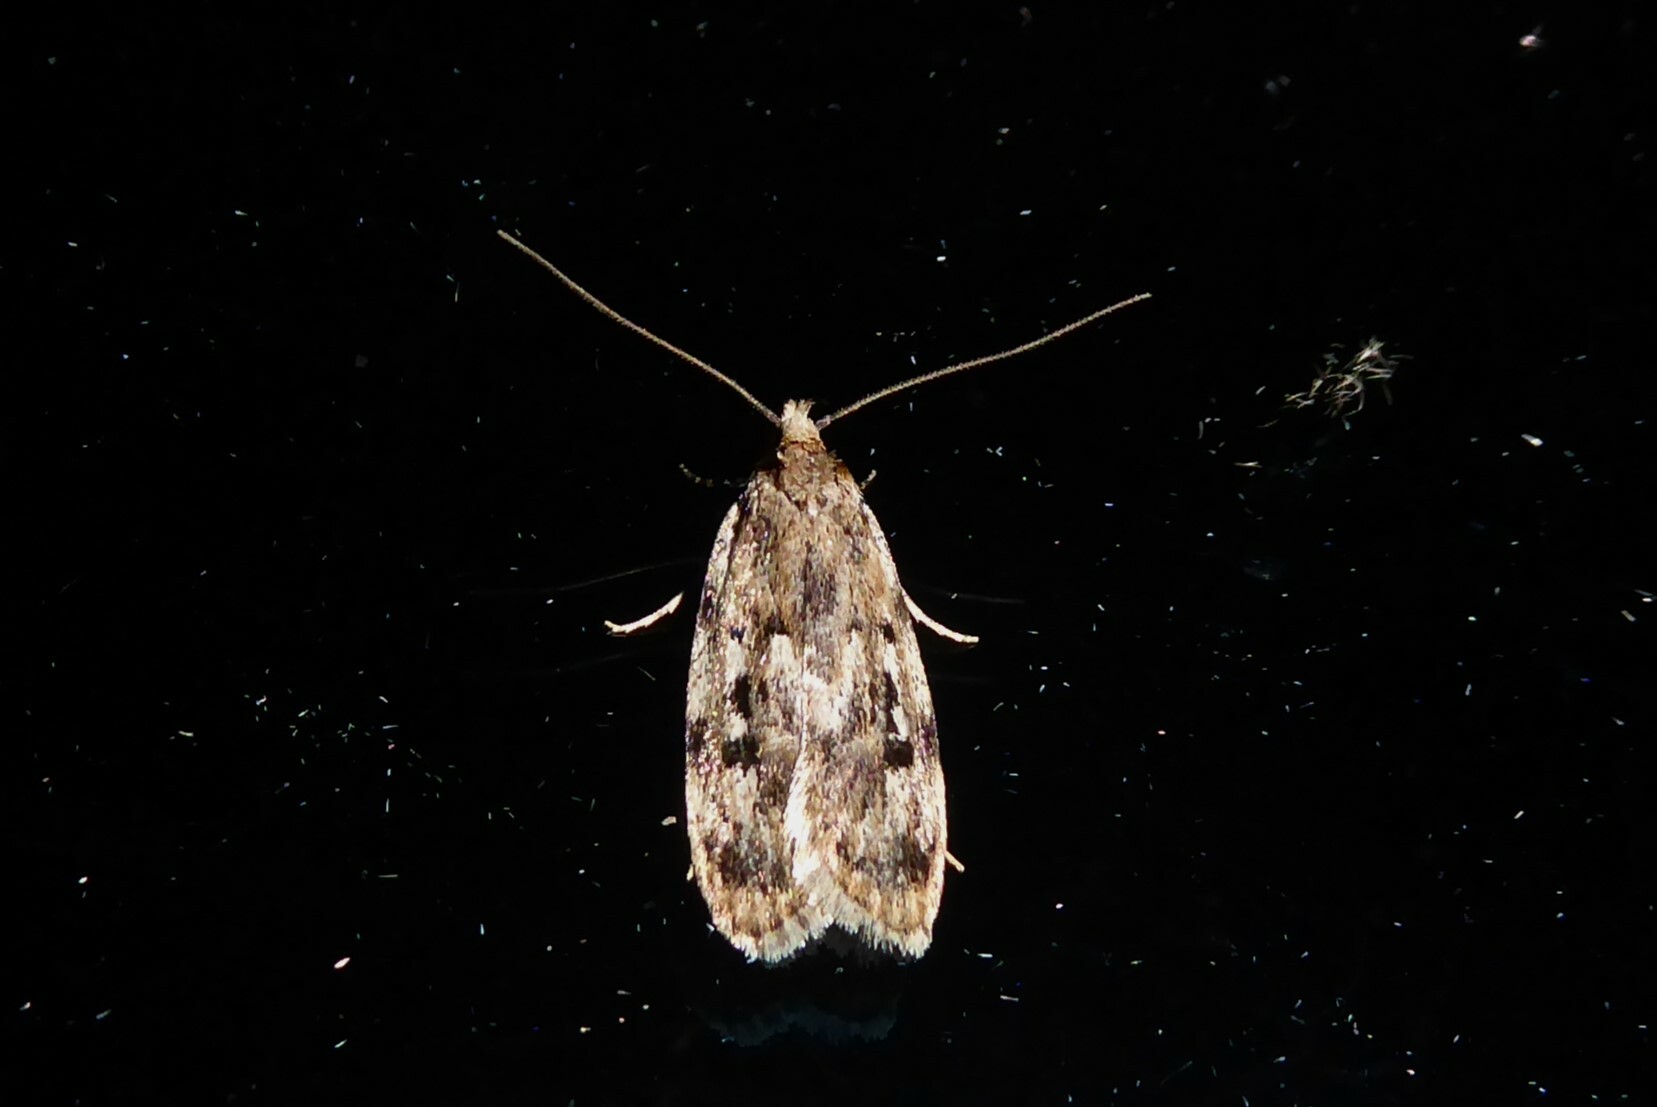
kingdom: Animalia
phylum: Arthropoda
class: Insecta
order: Lepidoptera
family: Oecophoridae
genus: Barea
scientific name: Barea exarcha
